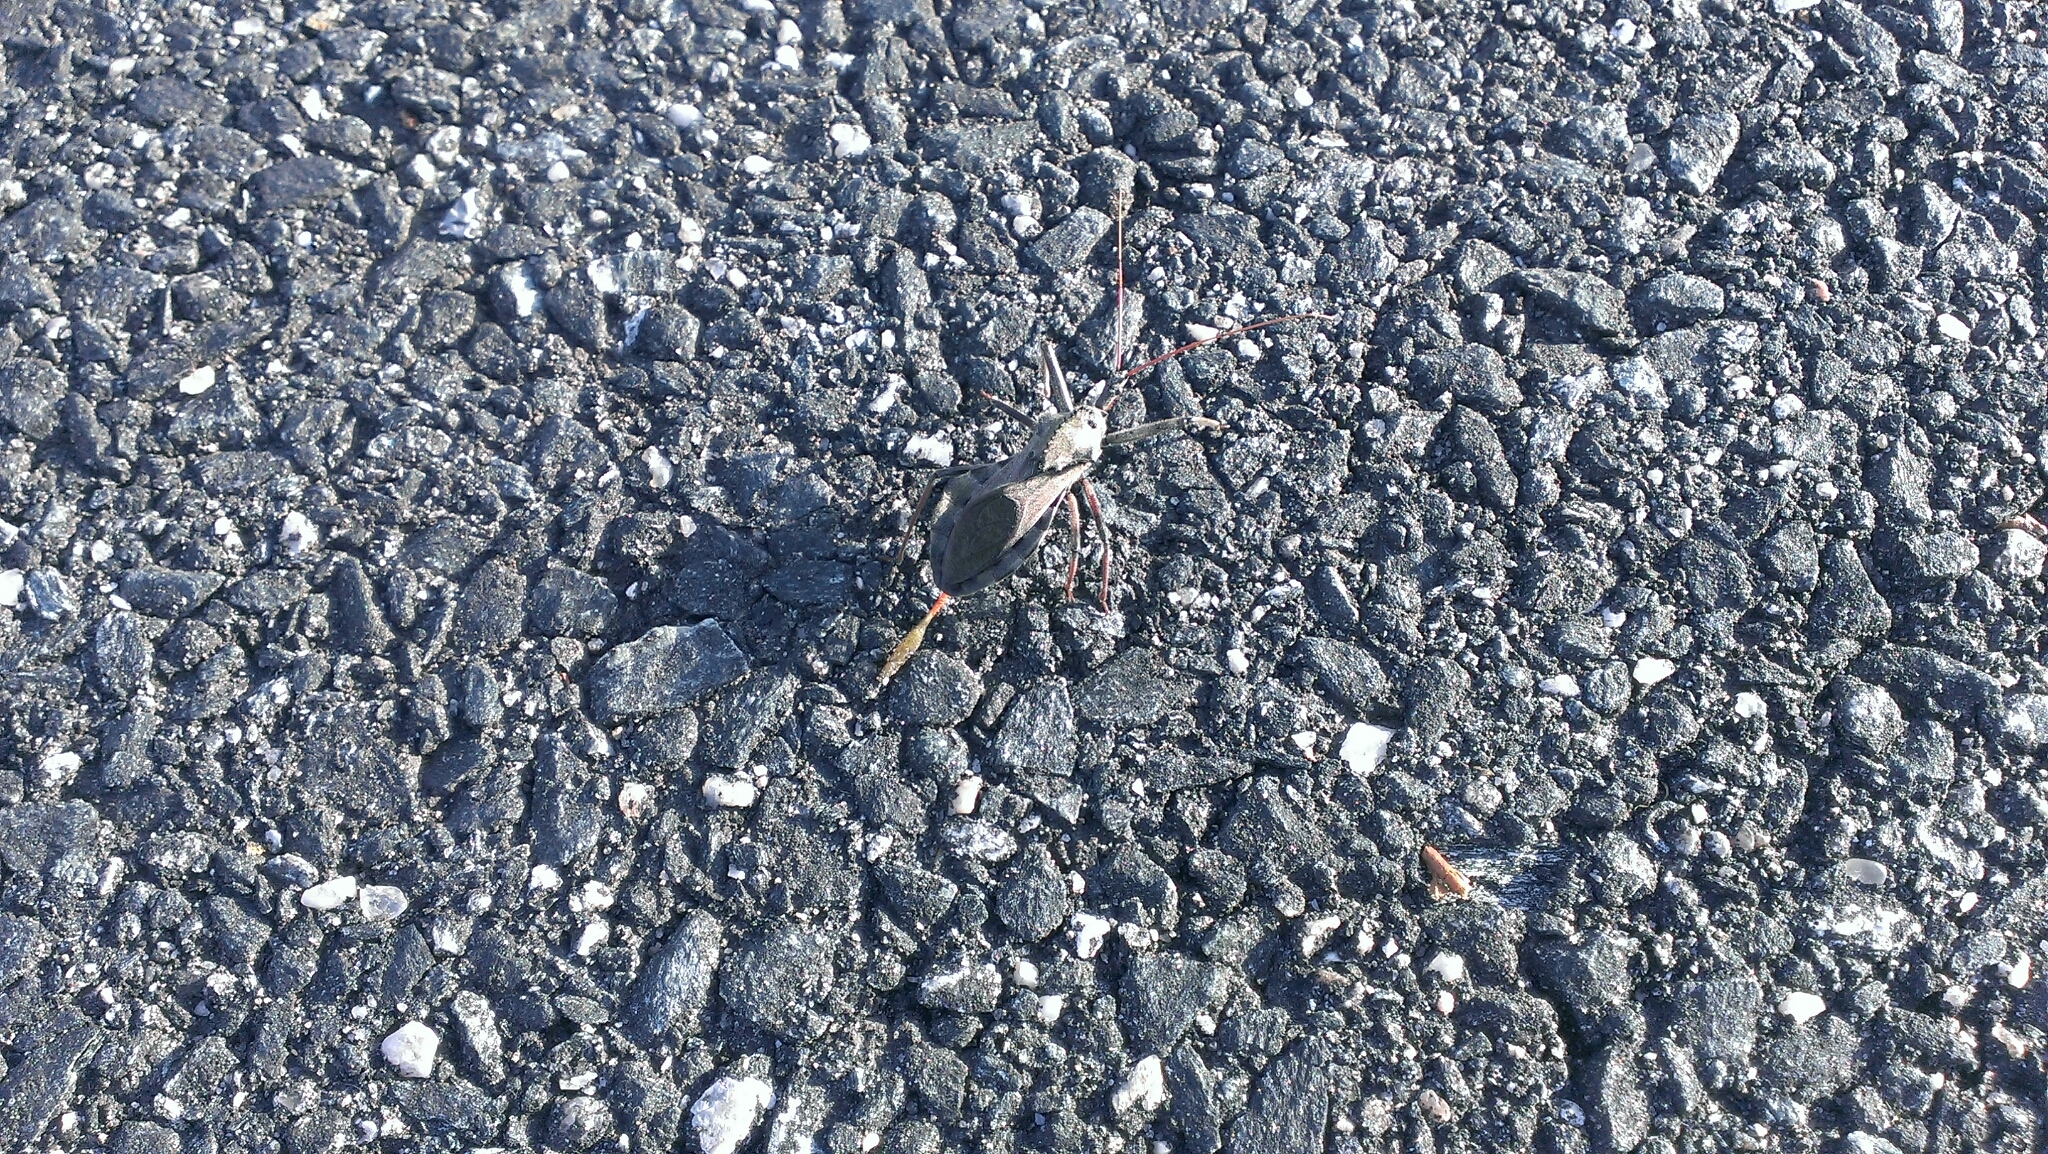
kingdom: Animalia
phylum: Arthropoda
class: Insecta
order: Hemiptera
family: Reduviidae
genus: Arilus
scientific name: Arilus cristatus
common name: North american wheel bug
